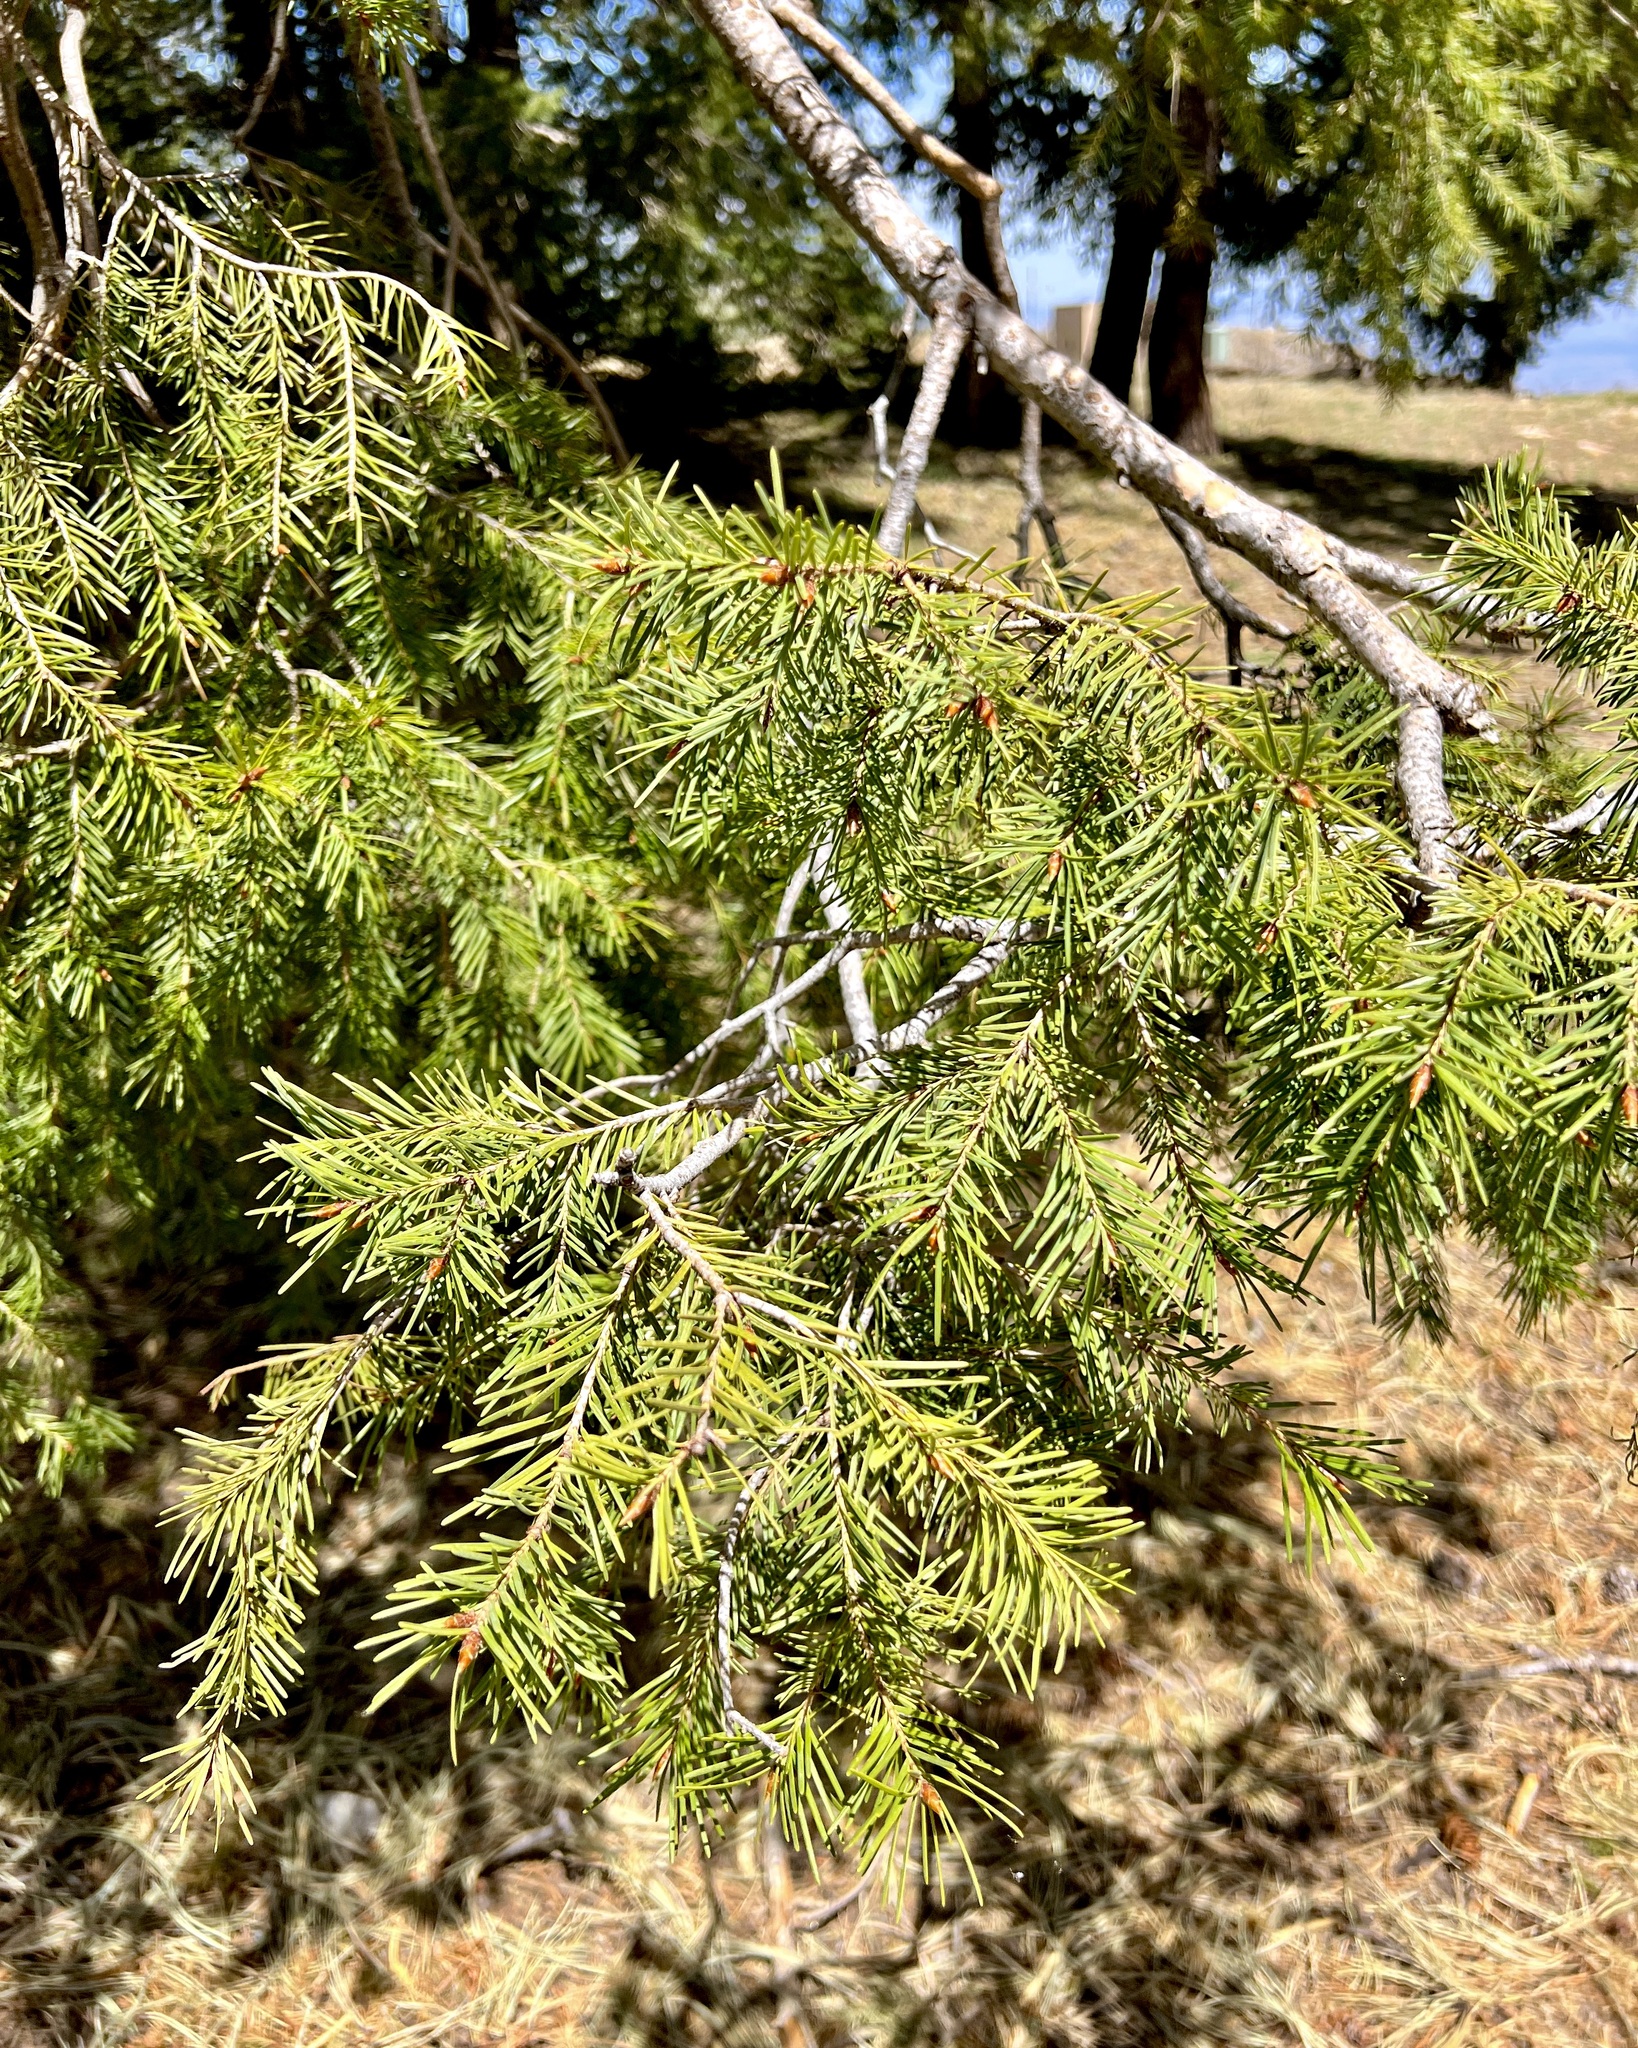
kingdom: Plantae
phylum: Tracheophyta
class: Pinopsida
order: Pinales
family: Pinaceae
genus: Pseudotsuga
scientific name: Pseudotsuga menziesii
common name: Douglas fir
